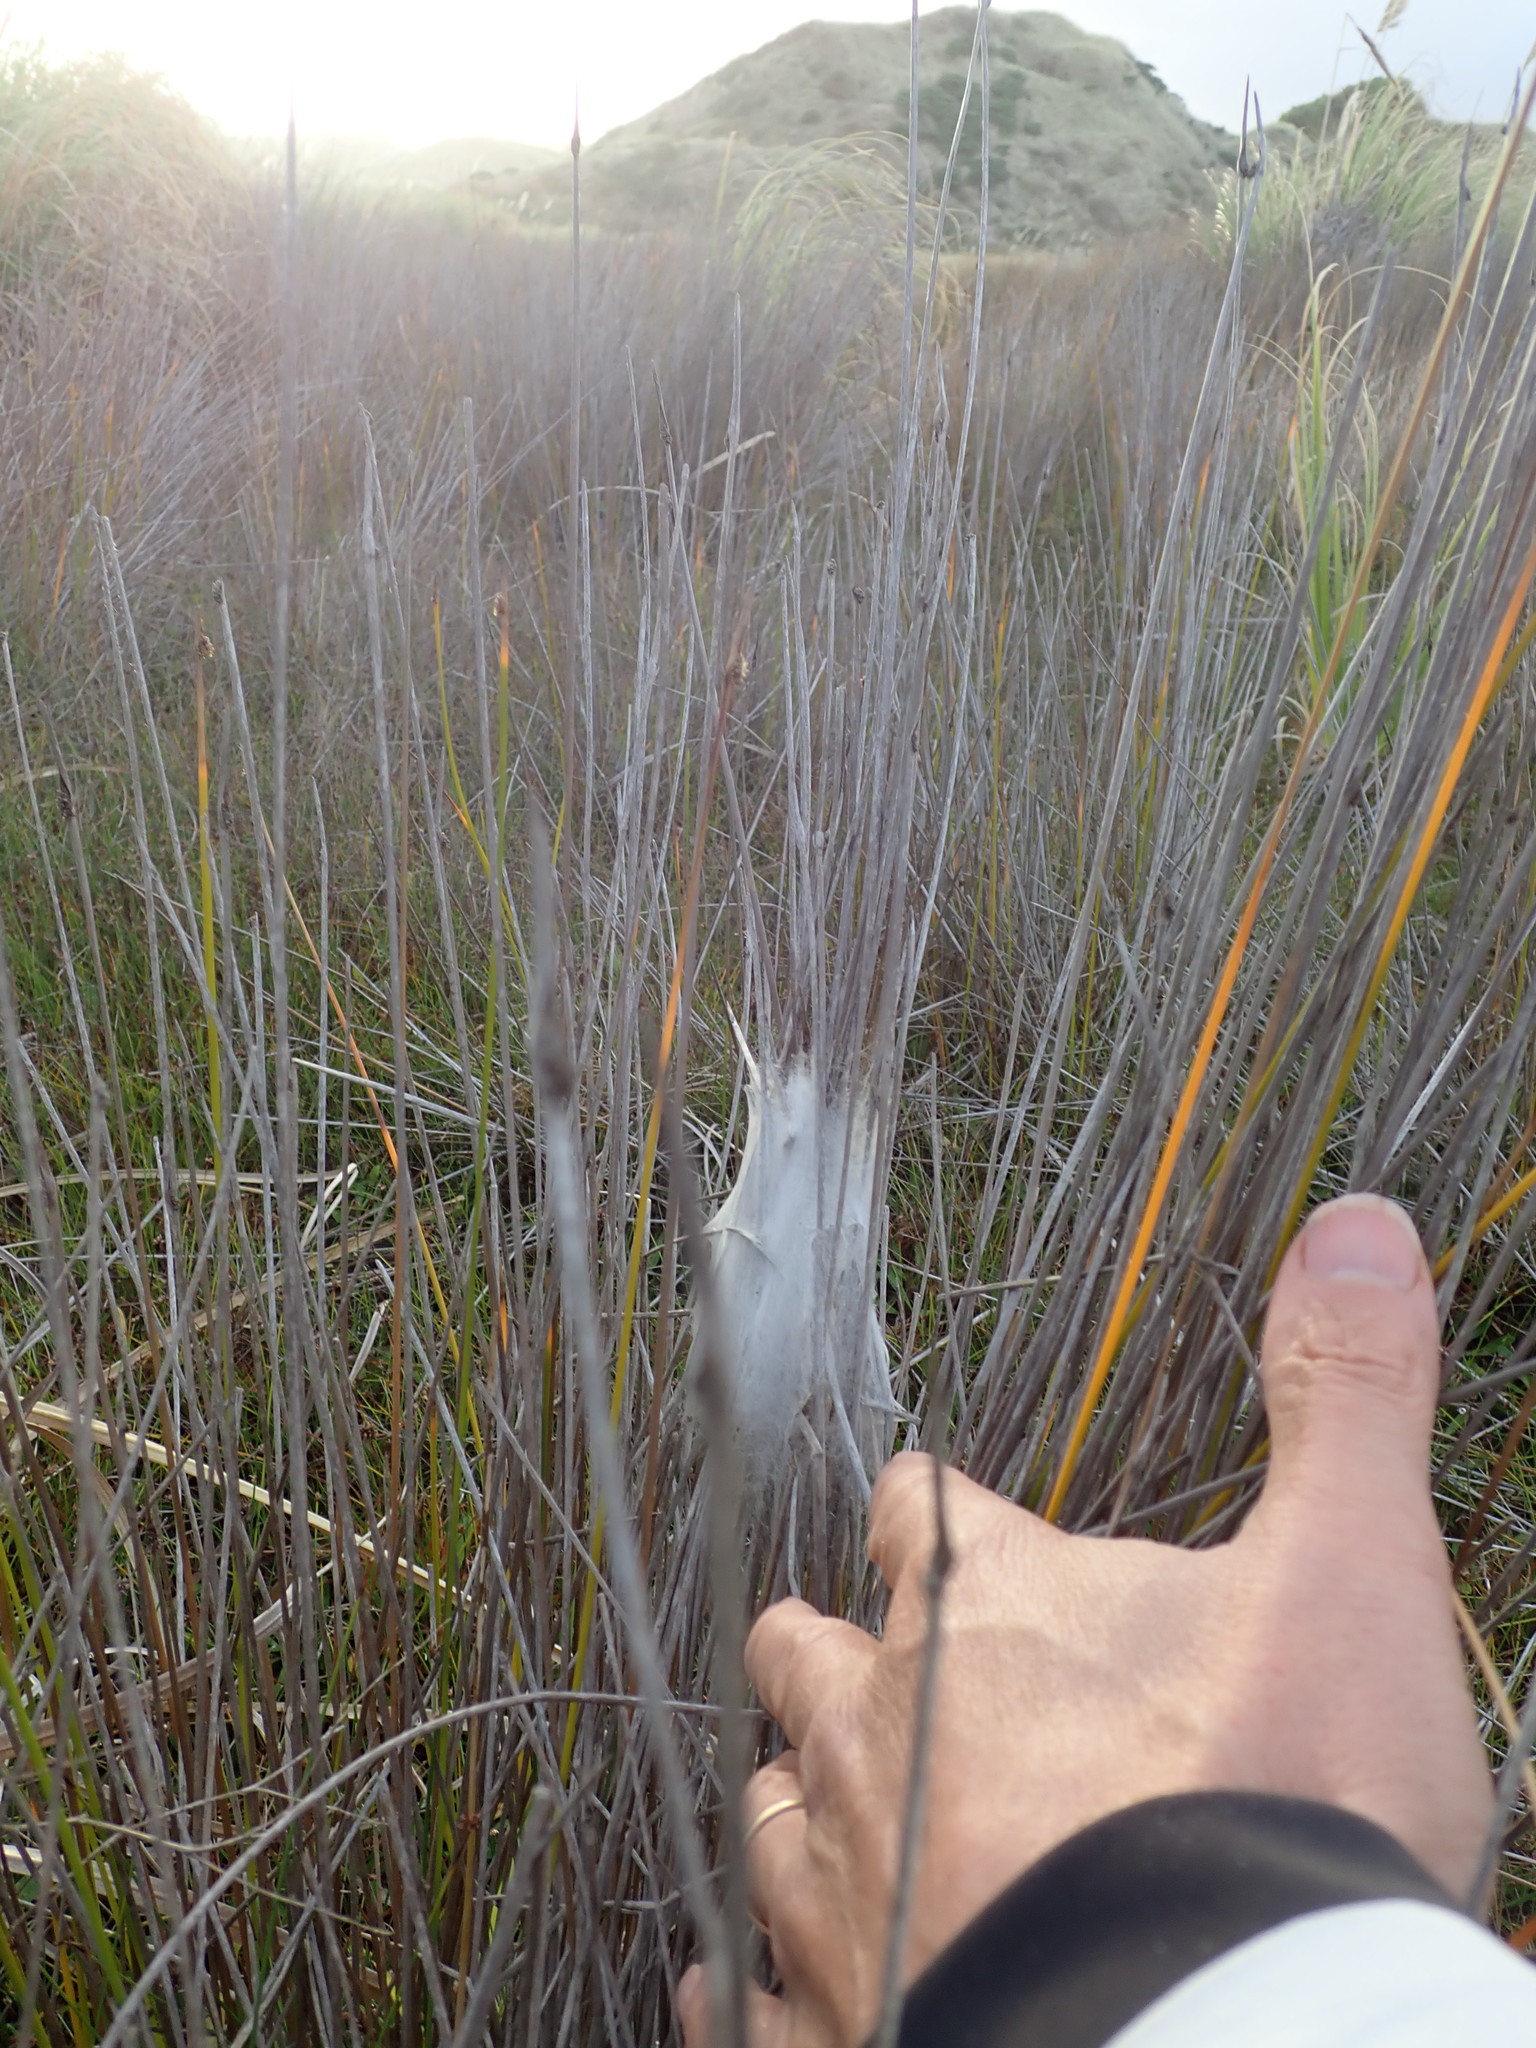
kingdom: Animalia
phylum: Arthropoda
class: Arachnida
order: Araneae
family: Pisauridae
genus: Dolomedes
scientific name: Dolomedes minor
